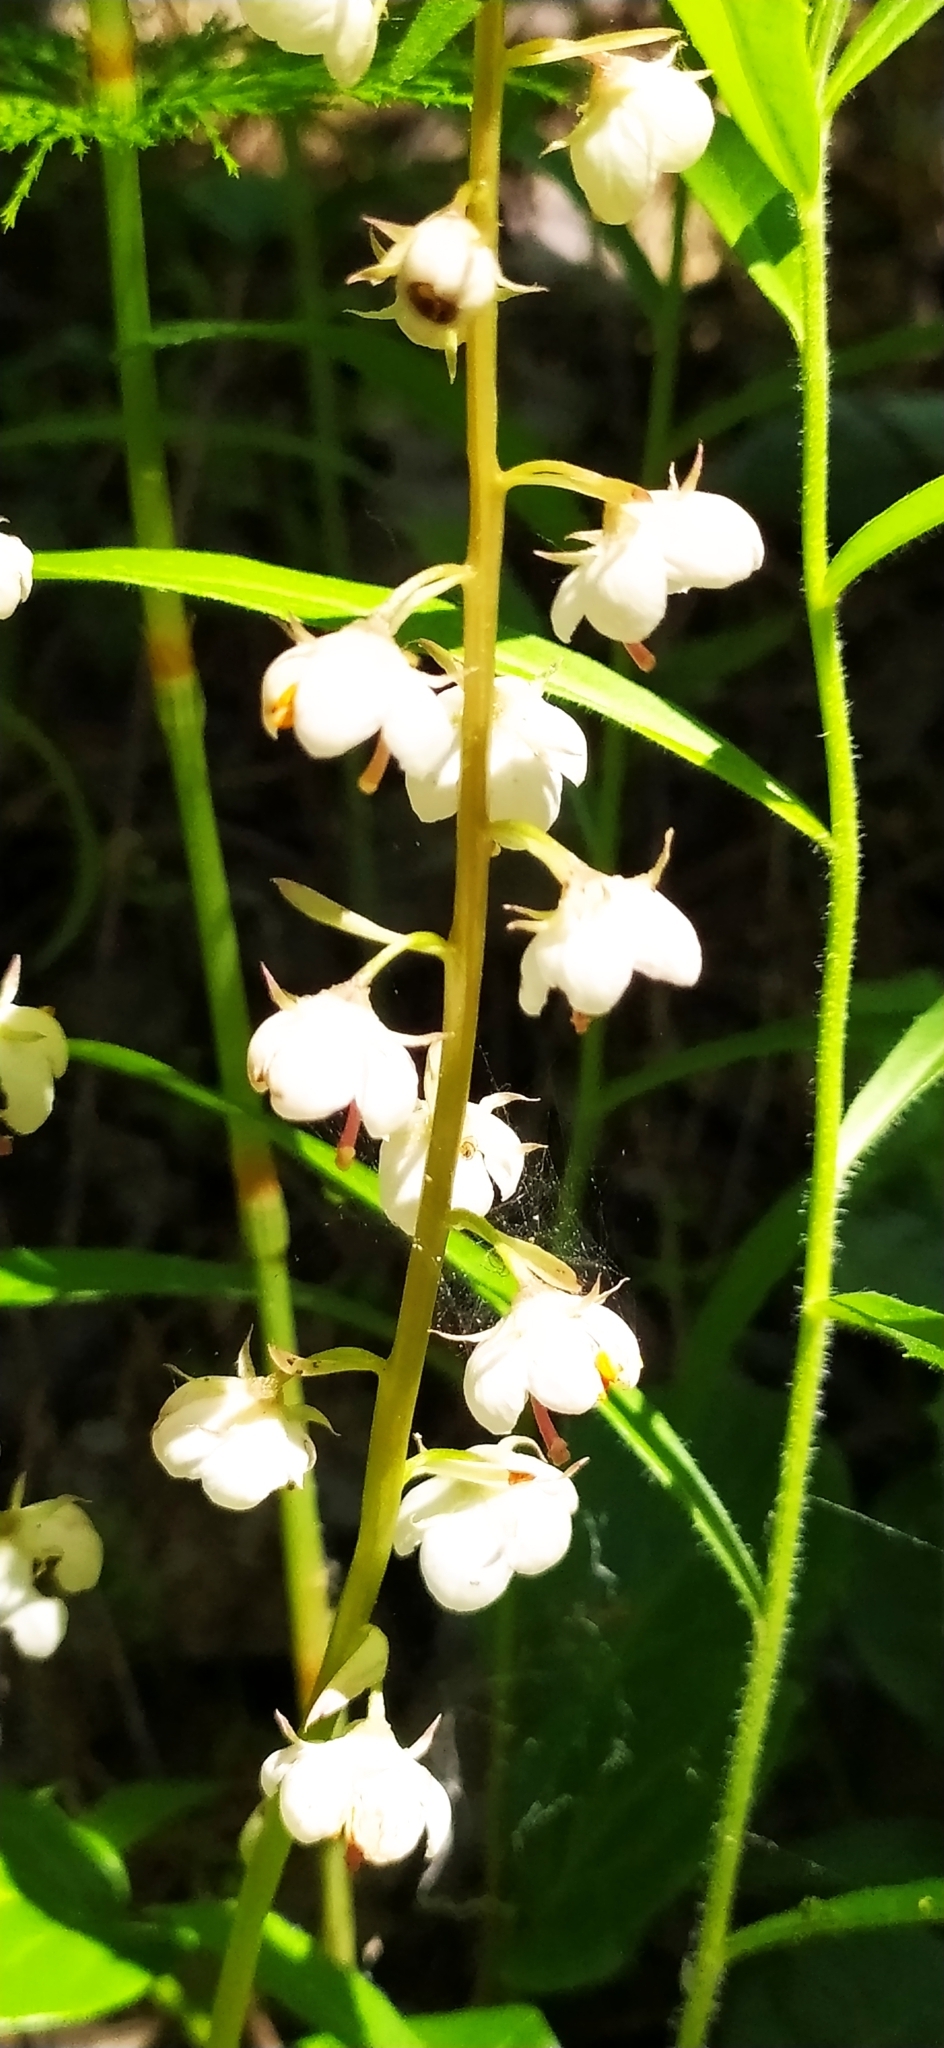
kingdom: Plantae
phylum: Tracheophyta
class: Magnoliopsida
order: Ericales
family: Ericaceae
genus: Pyrola
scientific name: Pyrola rotundifolia
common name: Round-leaved wintergreen
